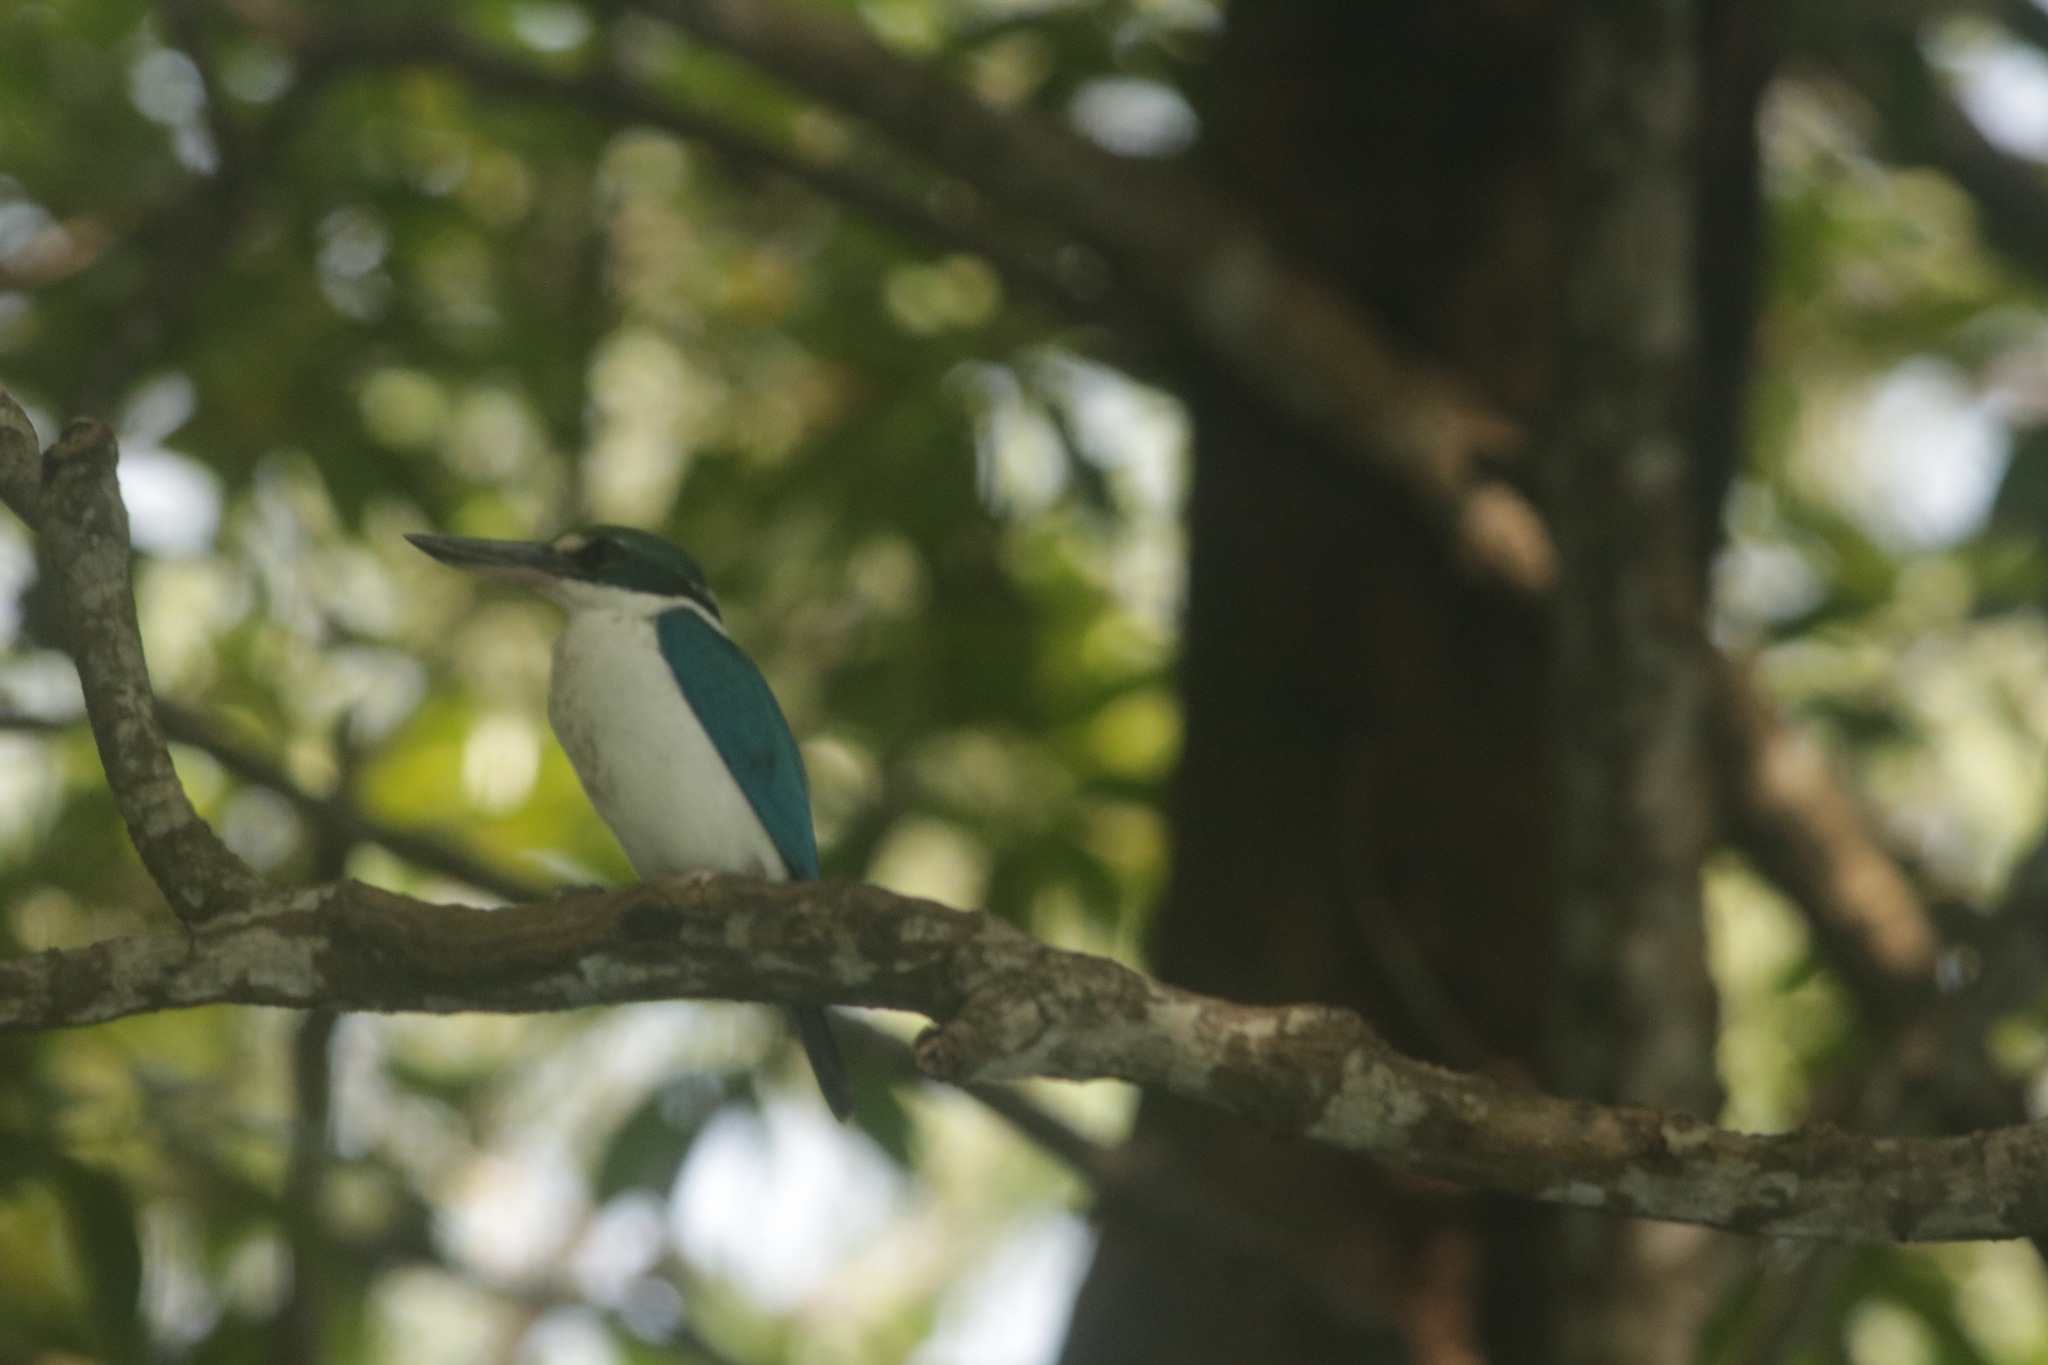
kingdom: Animalia
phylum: Chordata
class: Aves
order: Coraciiformes
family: Alcedinidae
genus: Todiramphus
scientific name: Todiramphus chloris
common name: Collared kingfisher
